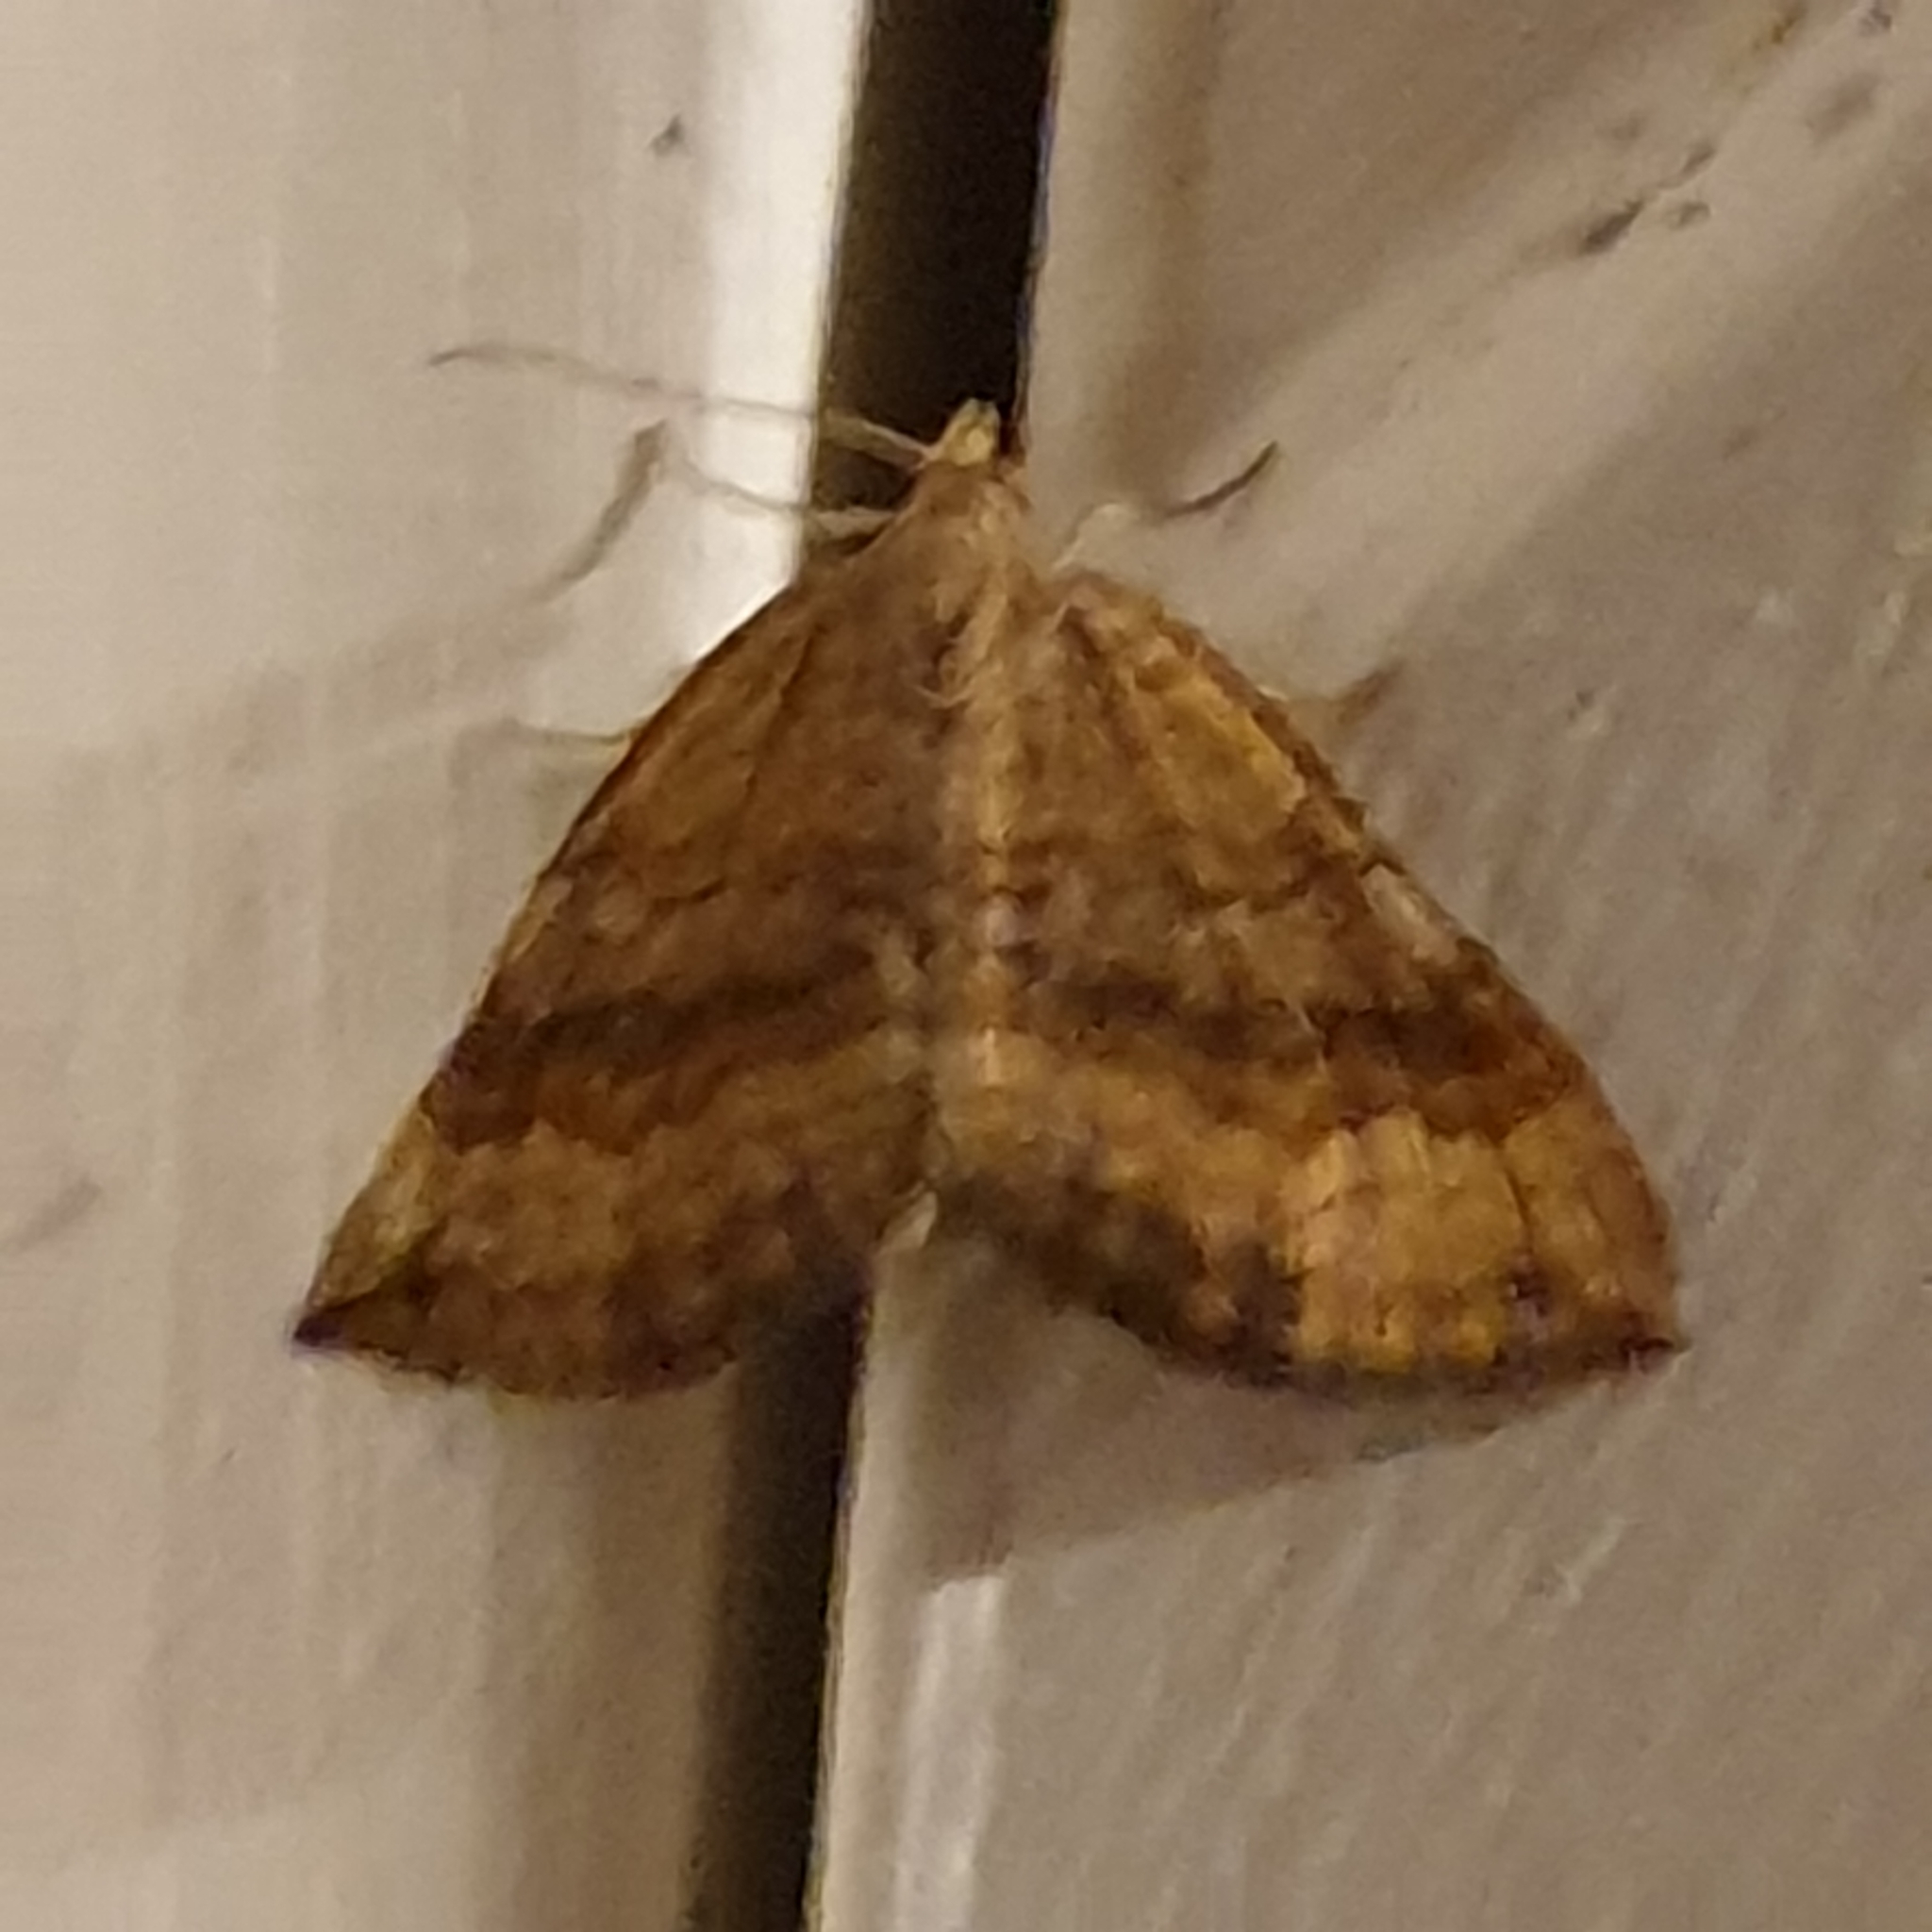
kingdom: Animalia
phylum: Arthropoda
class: Insecta
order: Lepidoptera
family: Geometridae
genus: Scotopteryx
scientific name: Scotopteryx chenopodiata
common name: Shaded broad-bar
